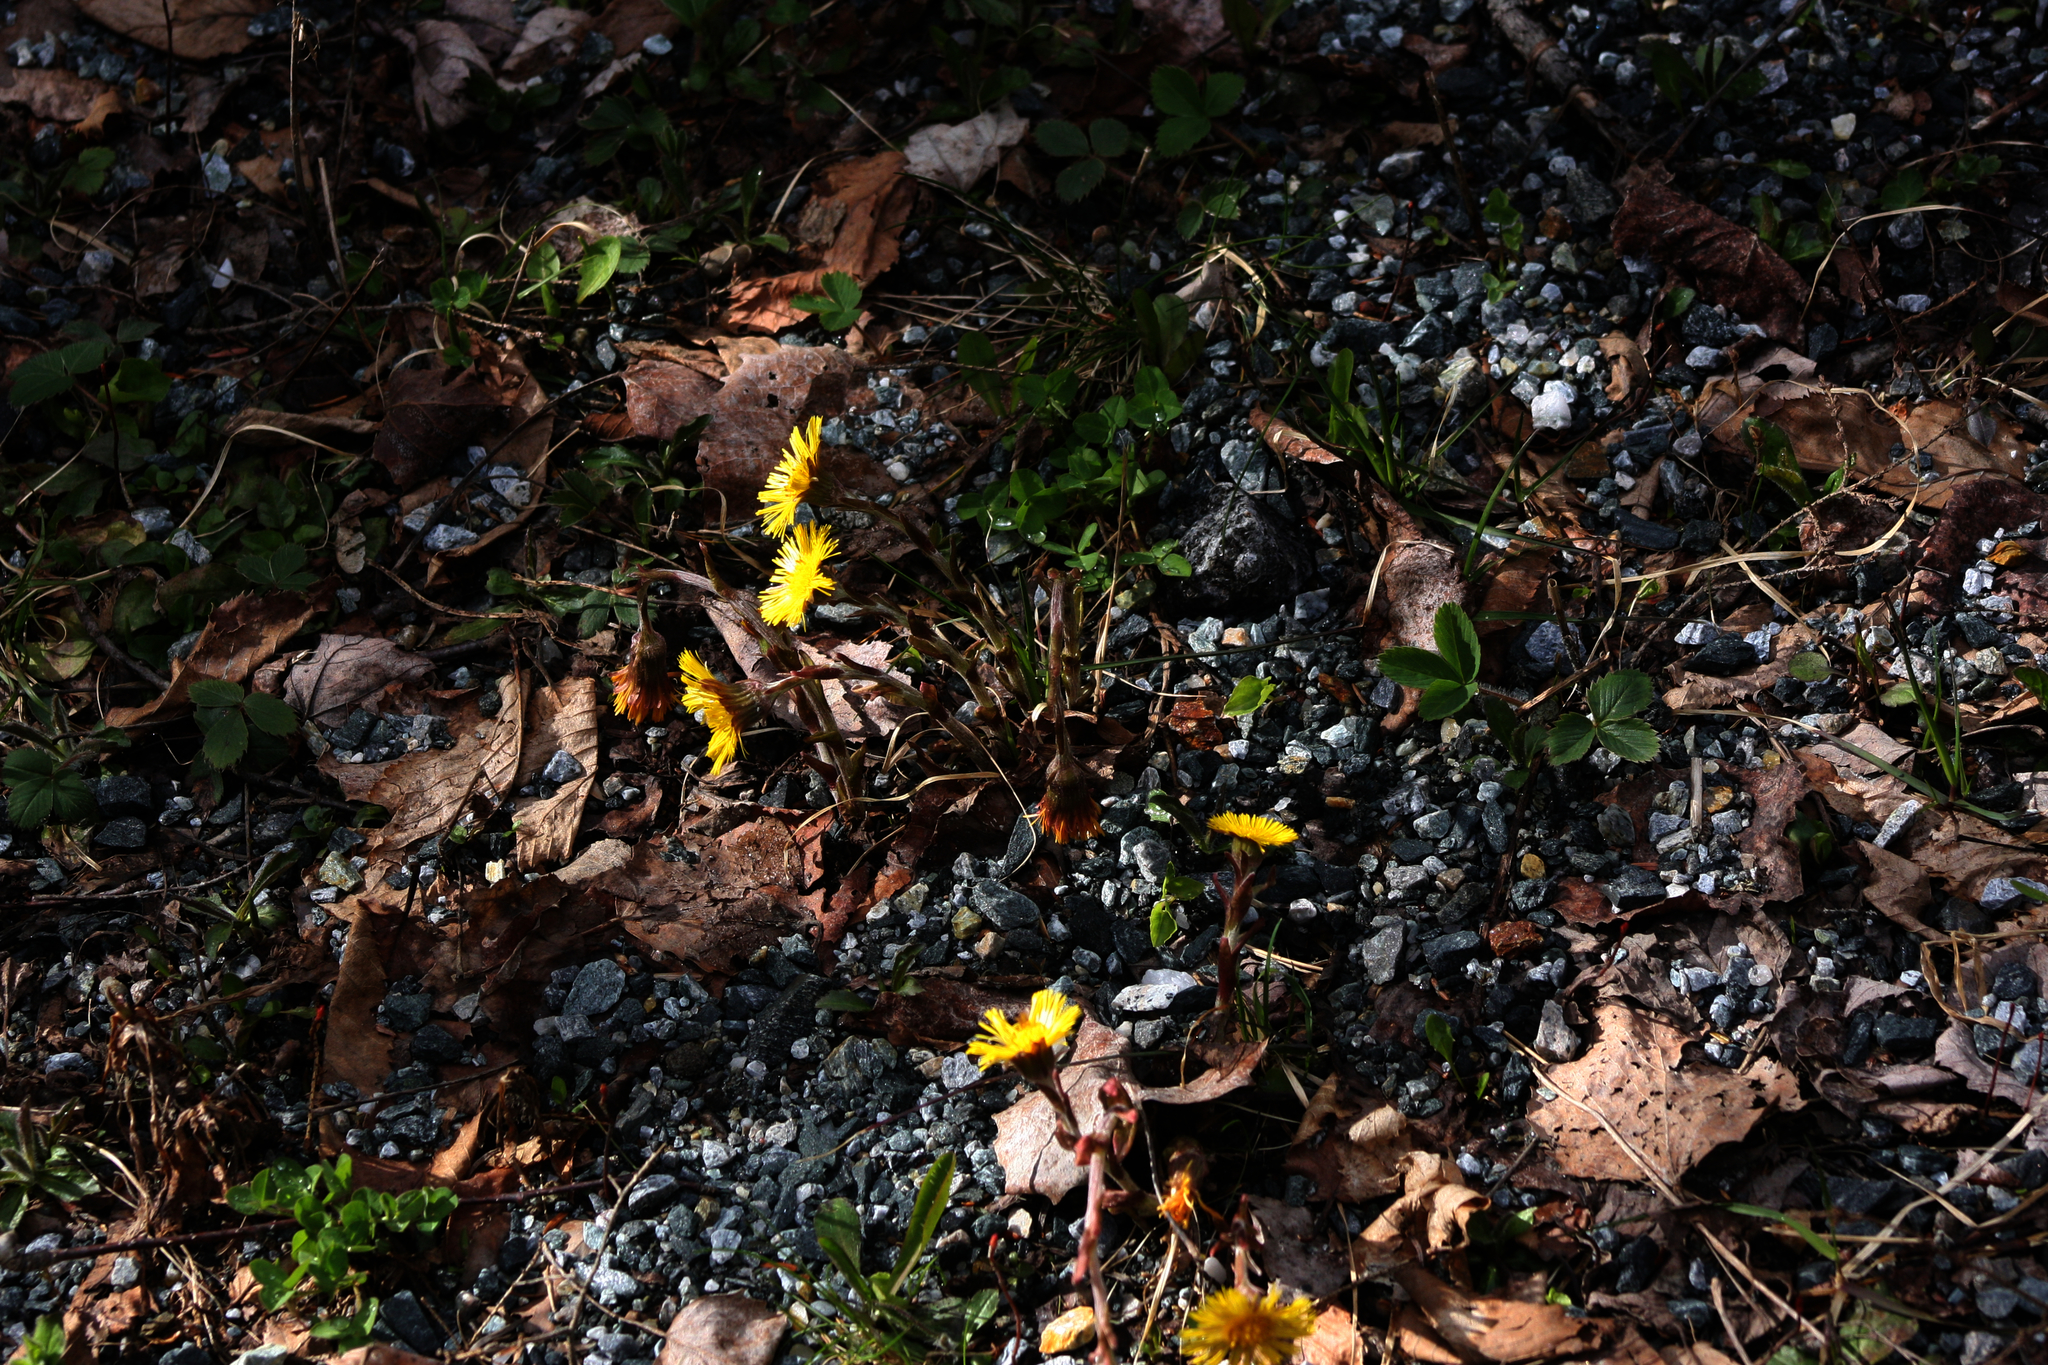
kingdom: Plantae
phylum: Tracheophyta
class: Magnoliopsida
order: Asterales
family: Asteraceae
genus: Tussilago
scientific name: Tussilago farfara
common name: Coltsfoot
